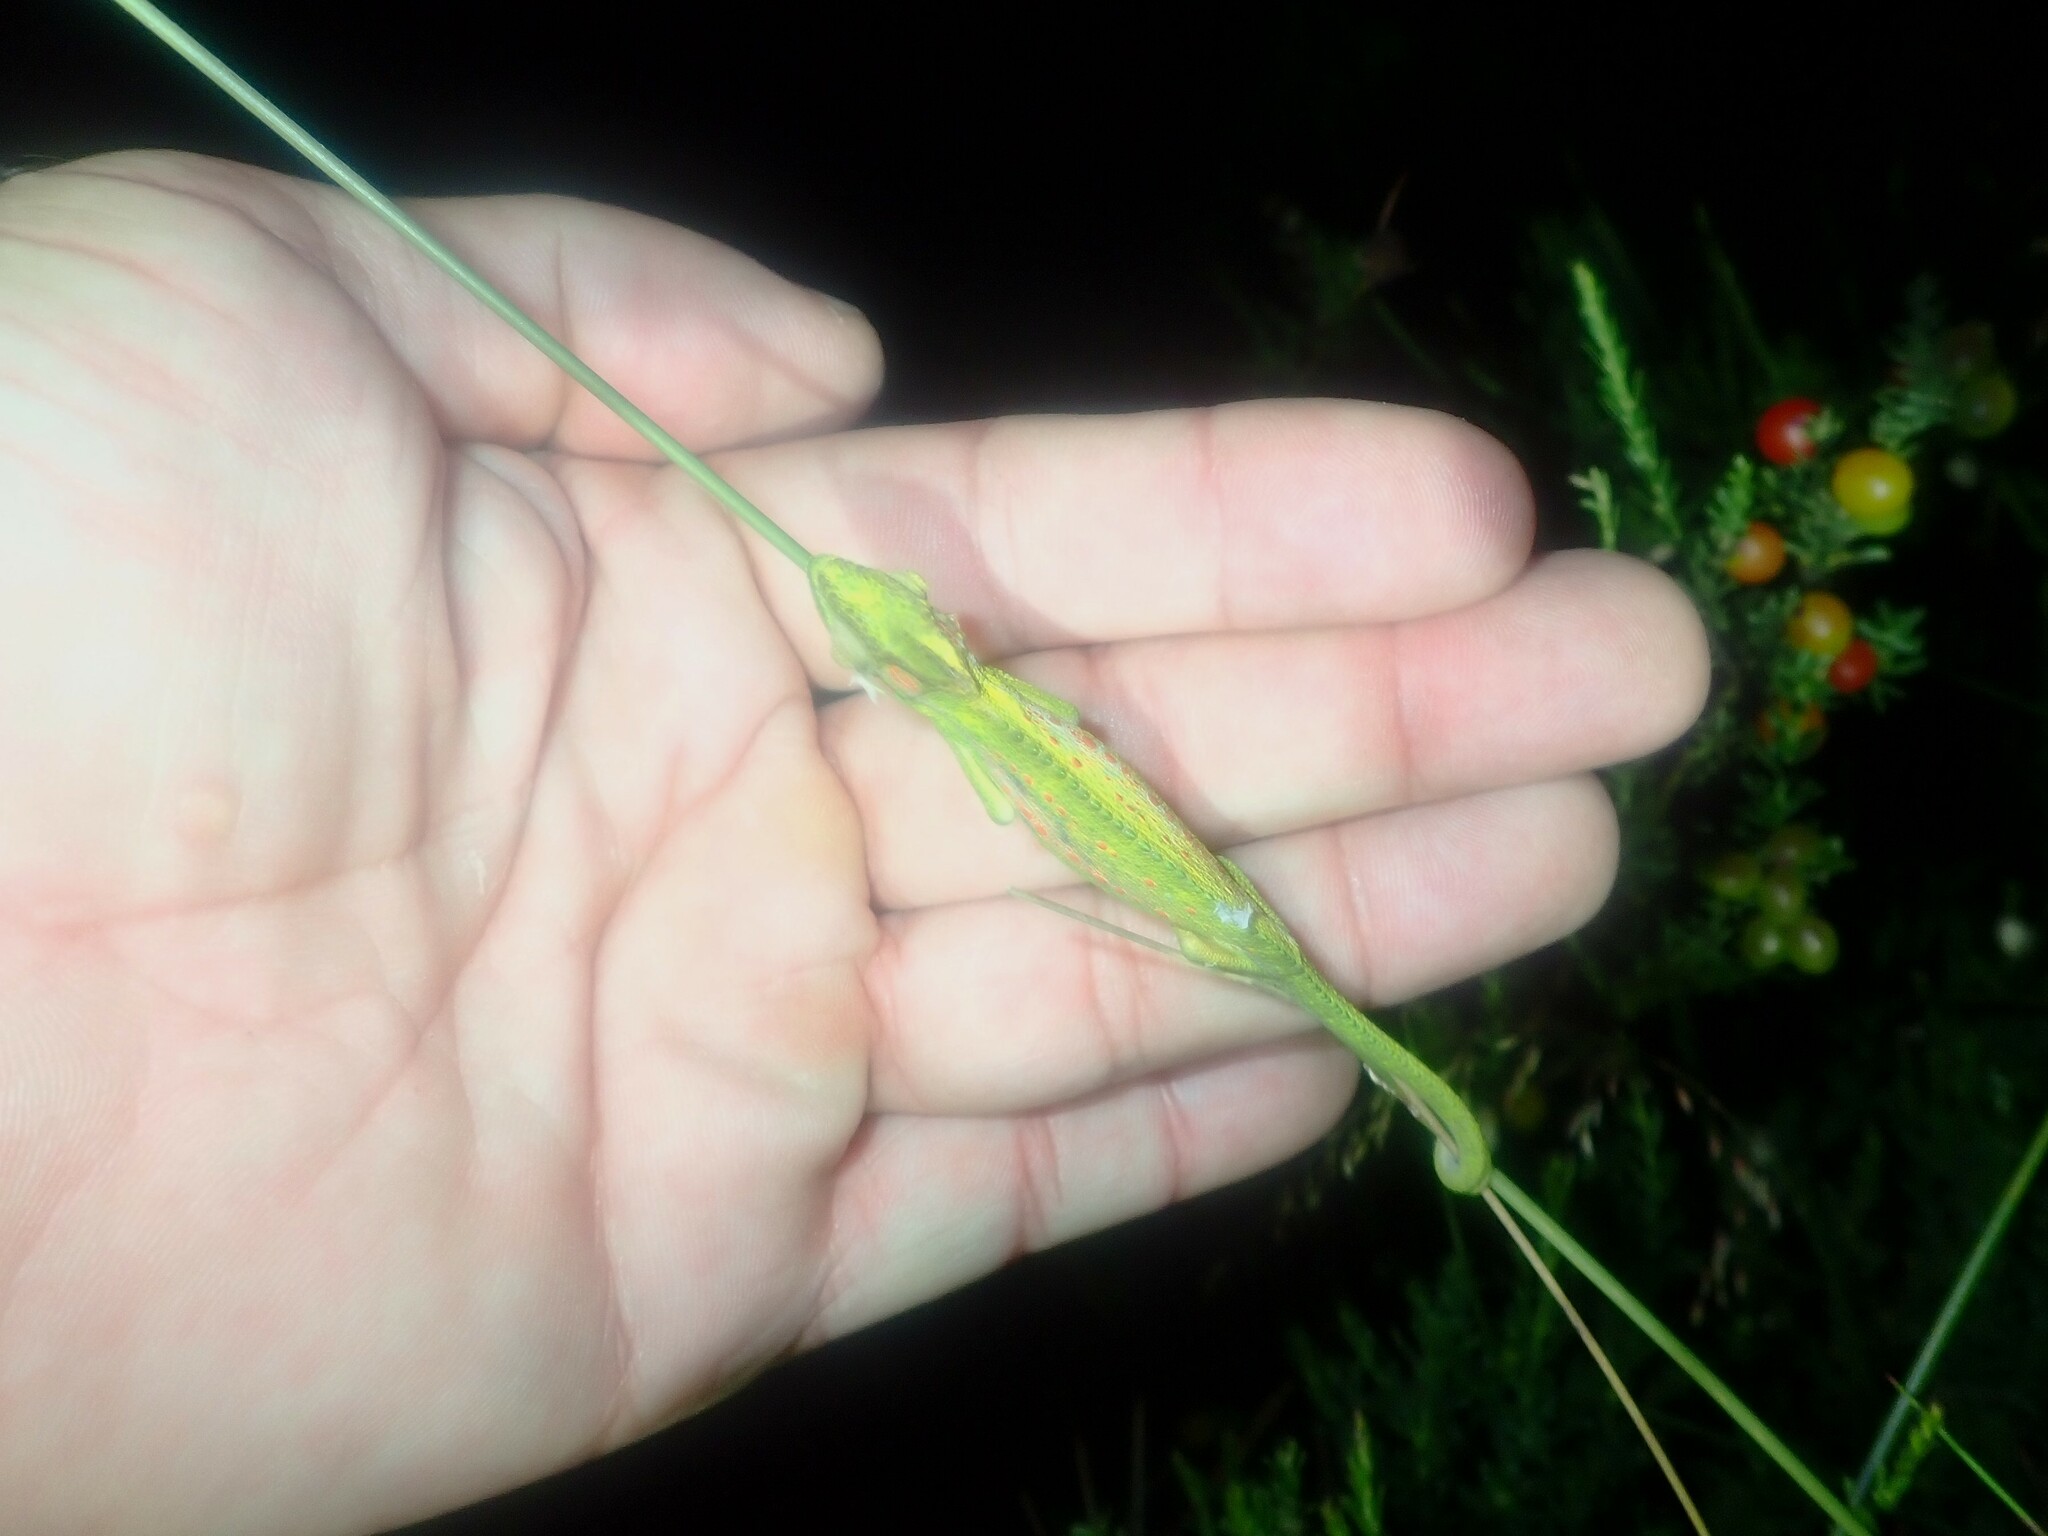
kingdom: Animalia
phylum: Chordata
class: Squamata
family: Chamaeleonidae
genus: Bradypodion
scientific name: Bradypodion pumilum
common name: Cape dwarf chameleon
